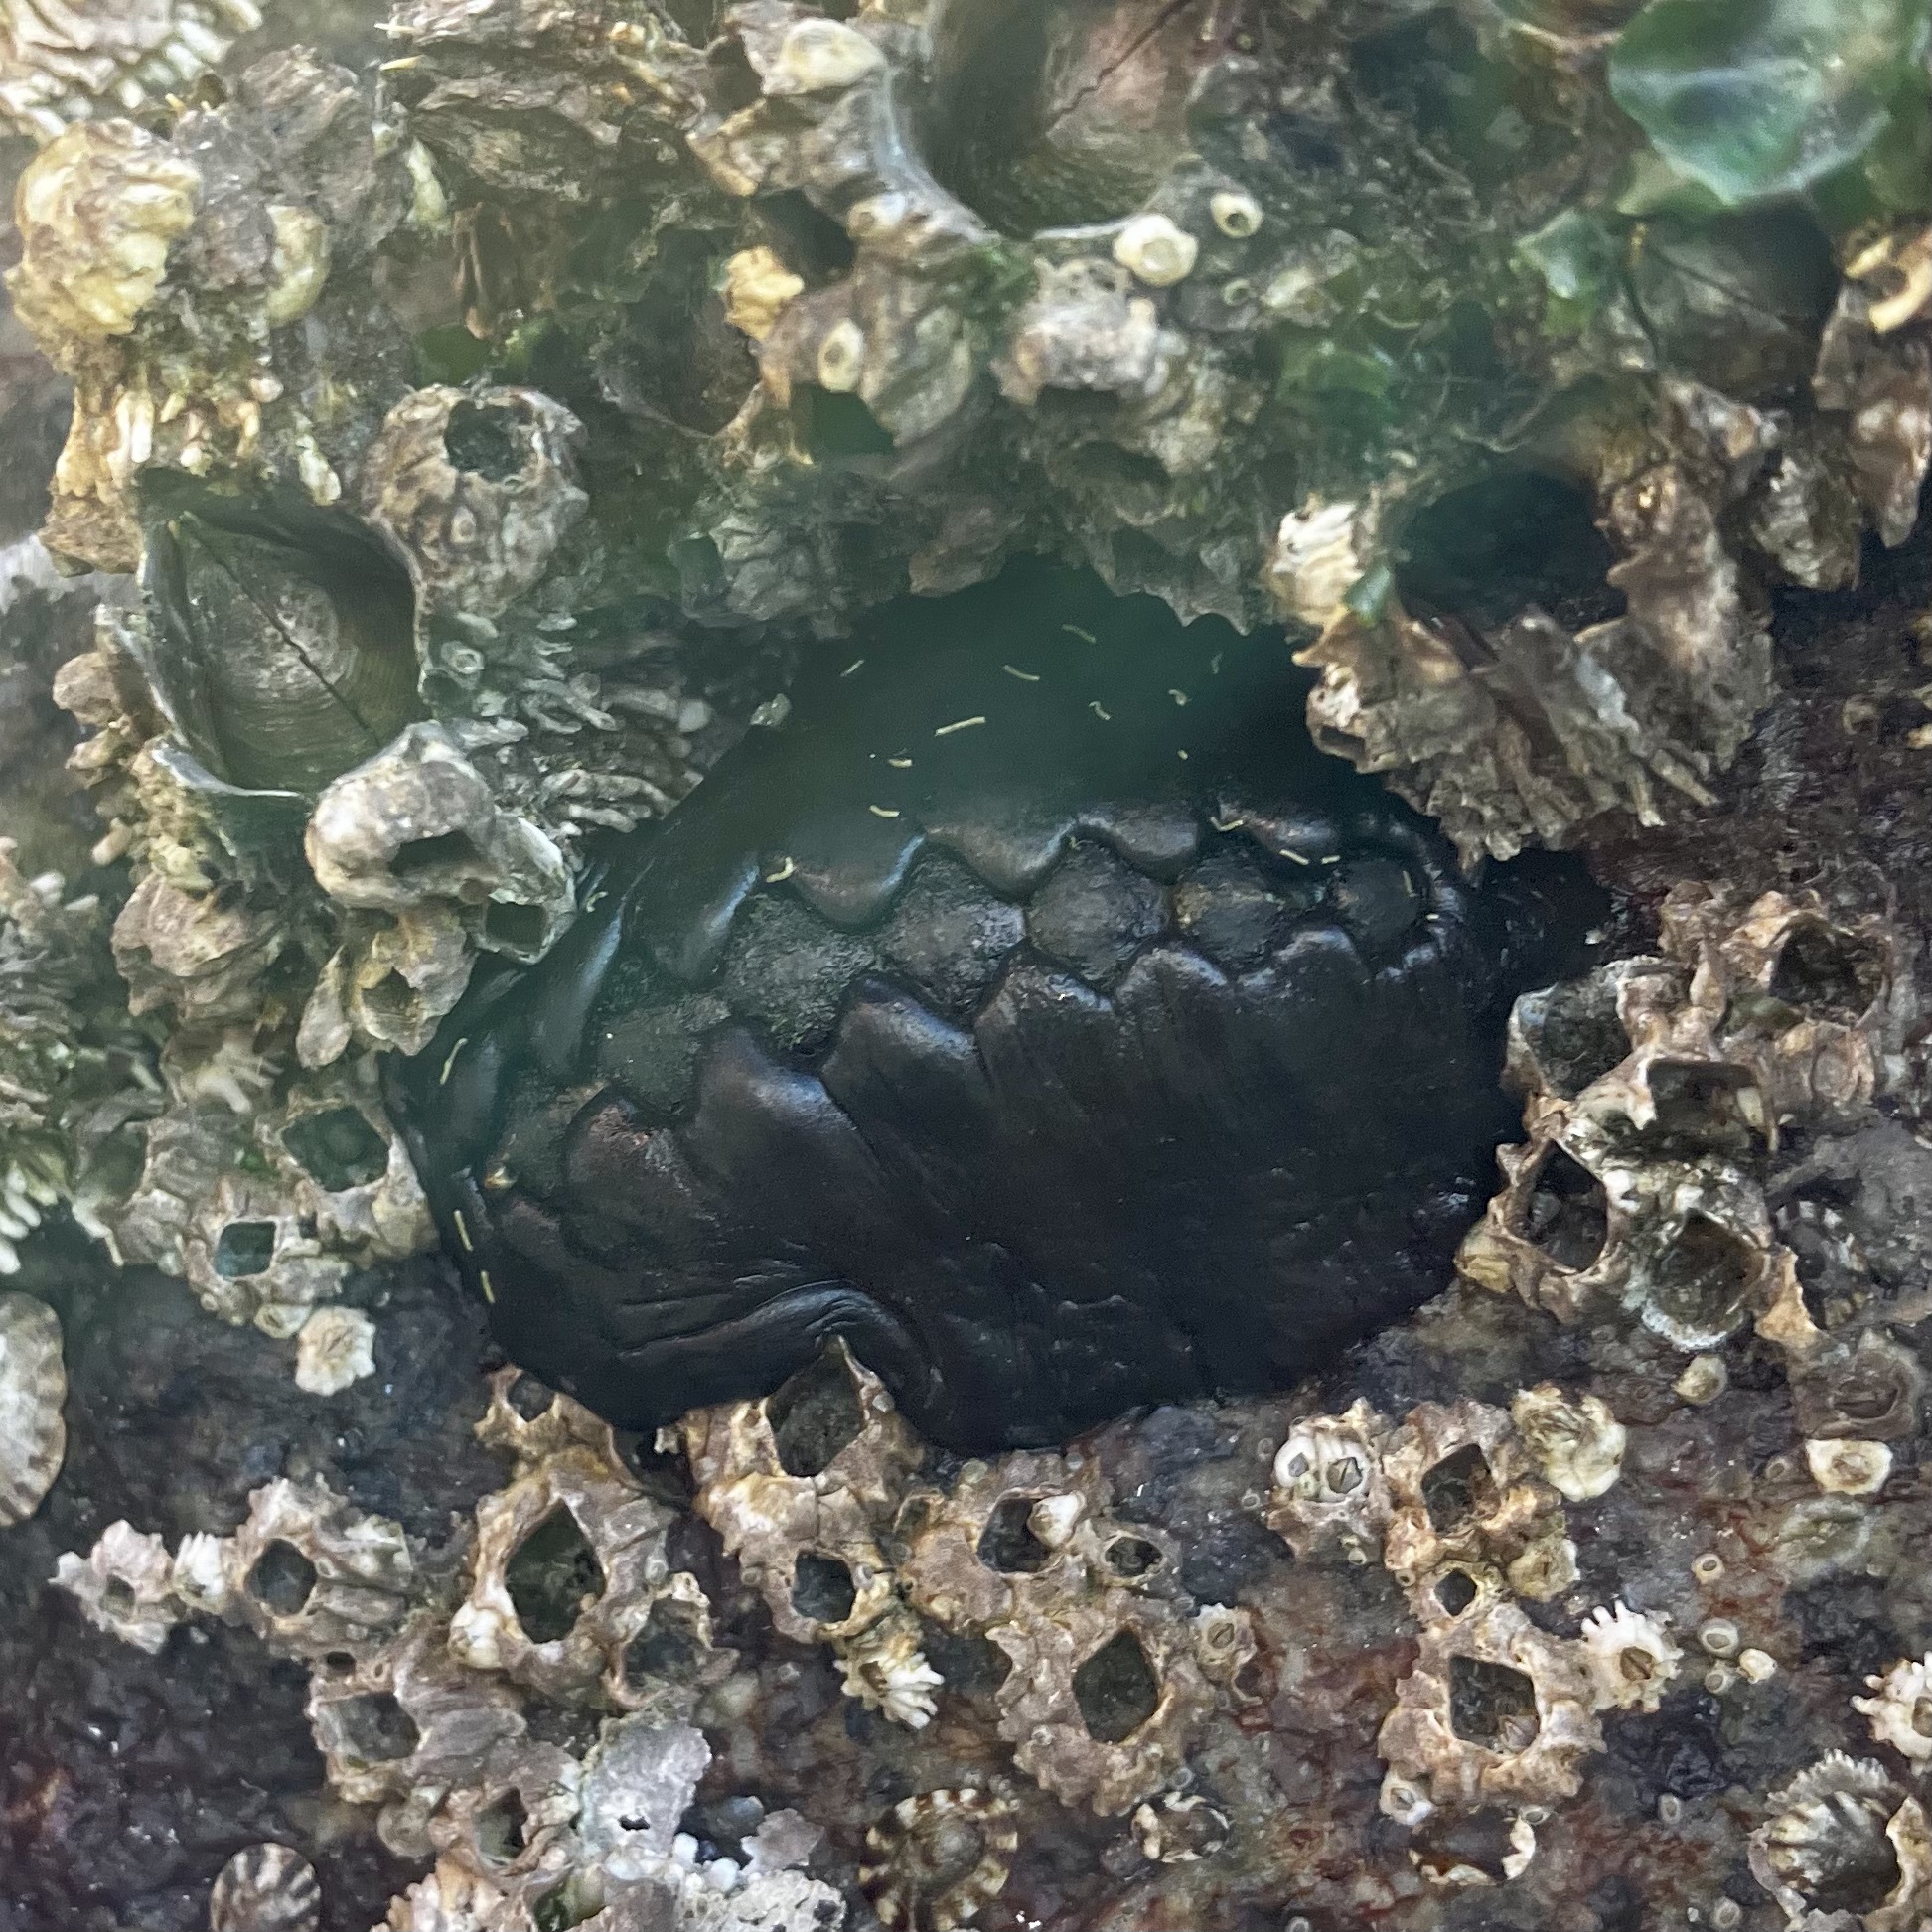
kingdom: Animalia
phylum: Mollusca
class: Polyplacophora
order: Chitonida
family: Mopaliidae
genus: Katharina
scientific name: Katharina tunicata
